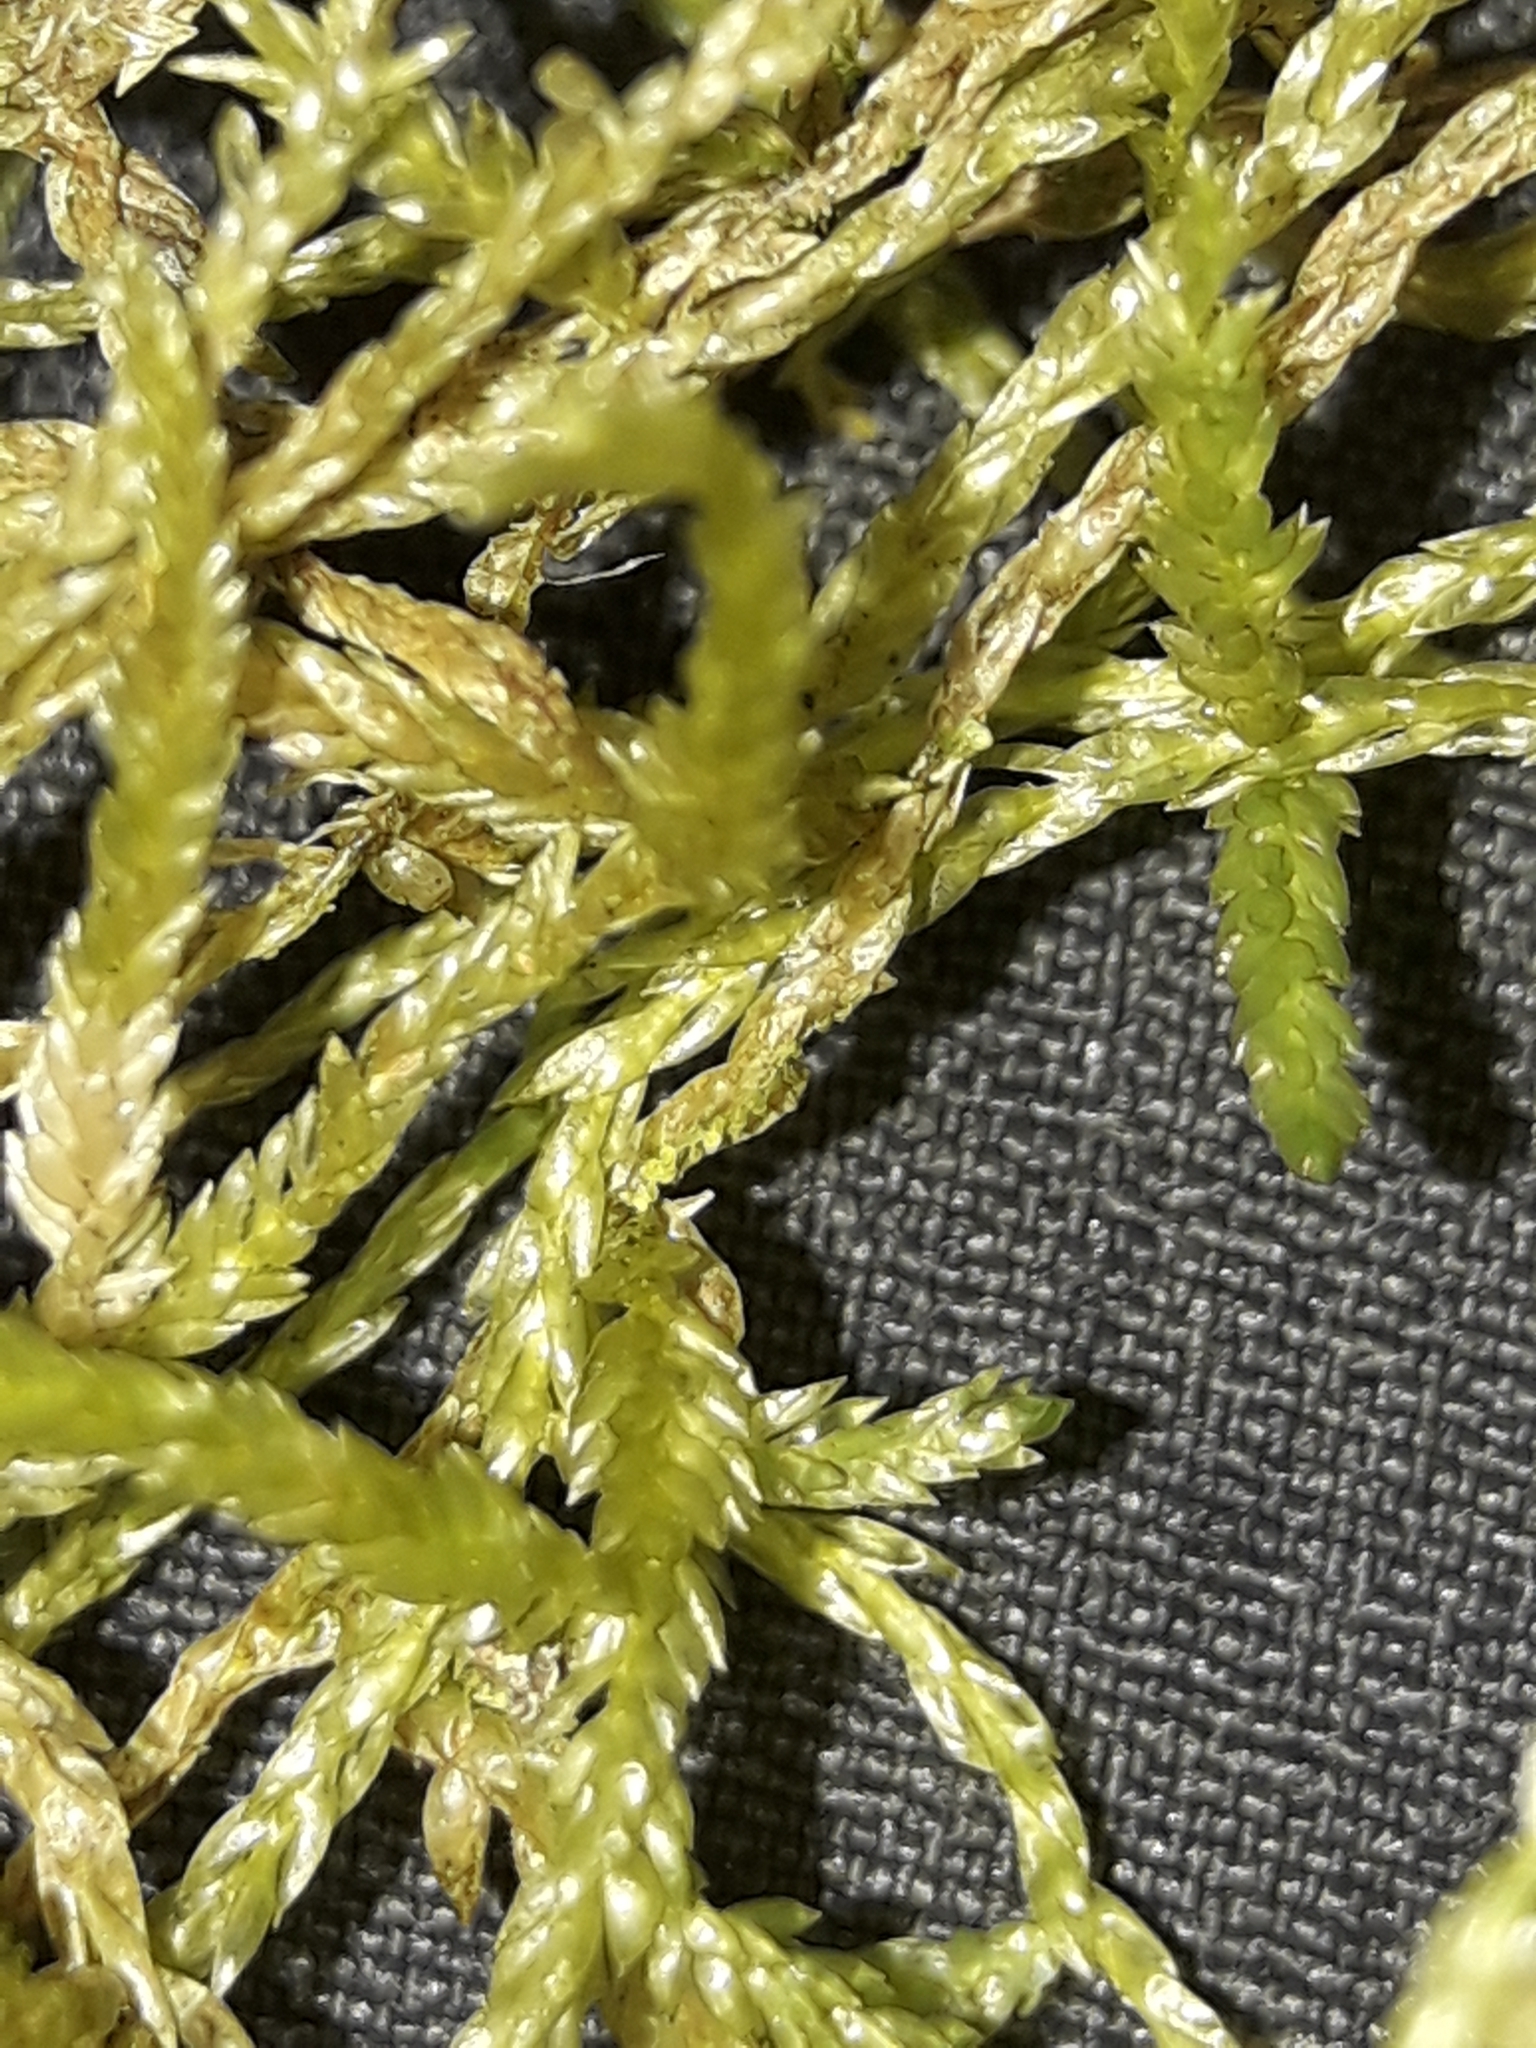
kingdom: Plantae
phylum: Bryophyta
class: Bryopsida
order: Hypnales
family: Lembophyllaceae
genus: Weymouthia
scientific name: Weymouthia mollis
